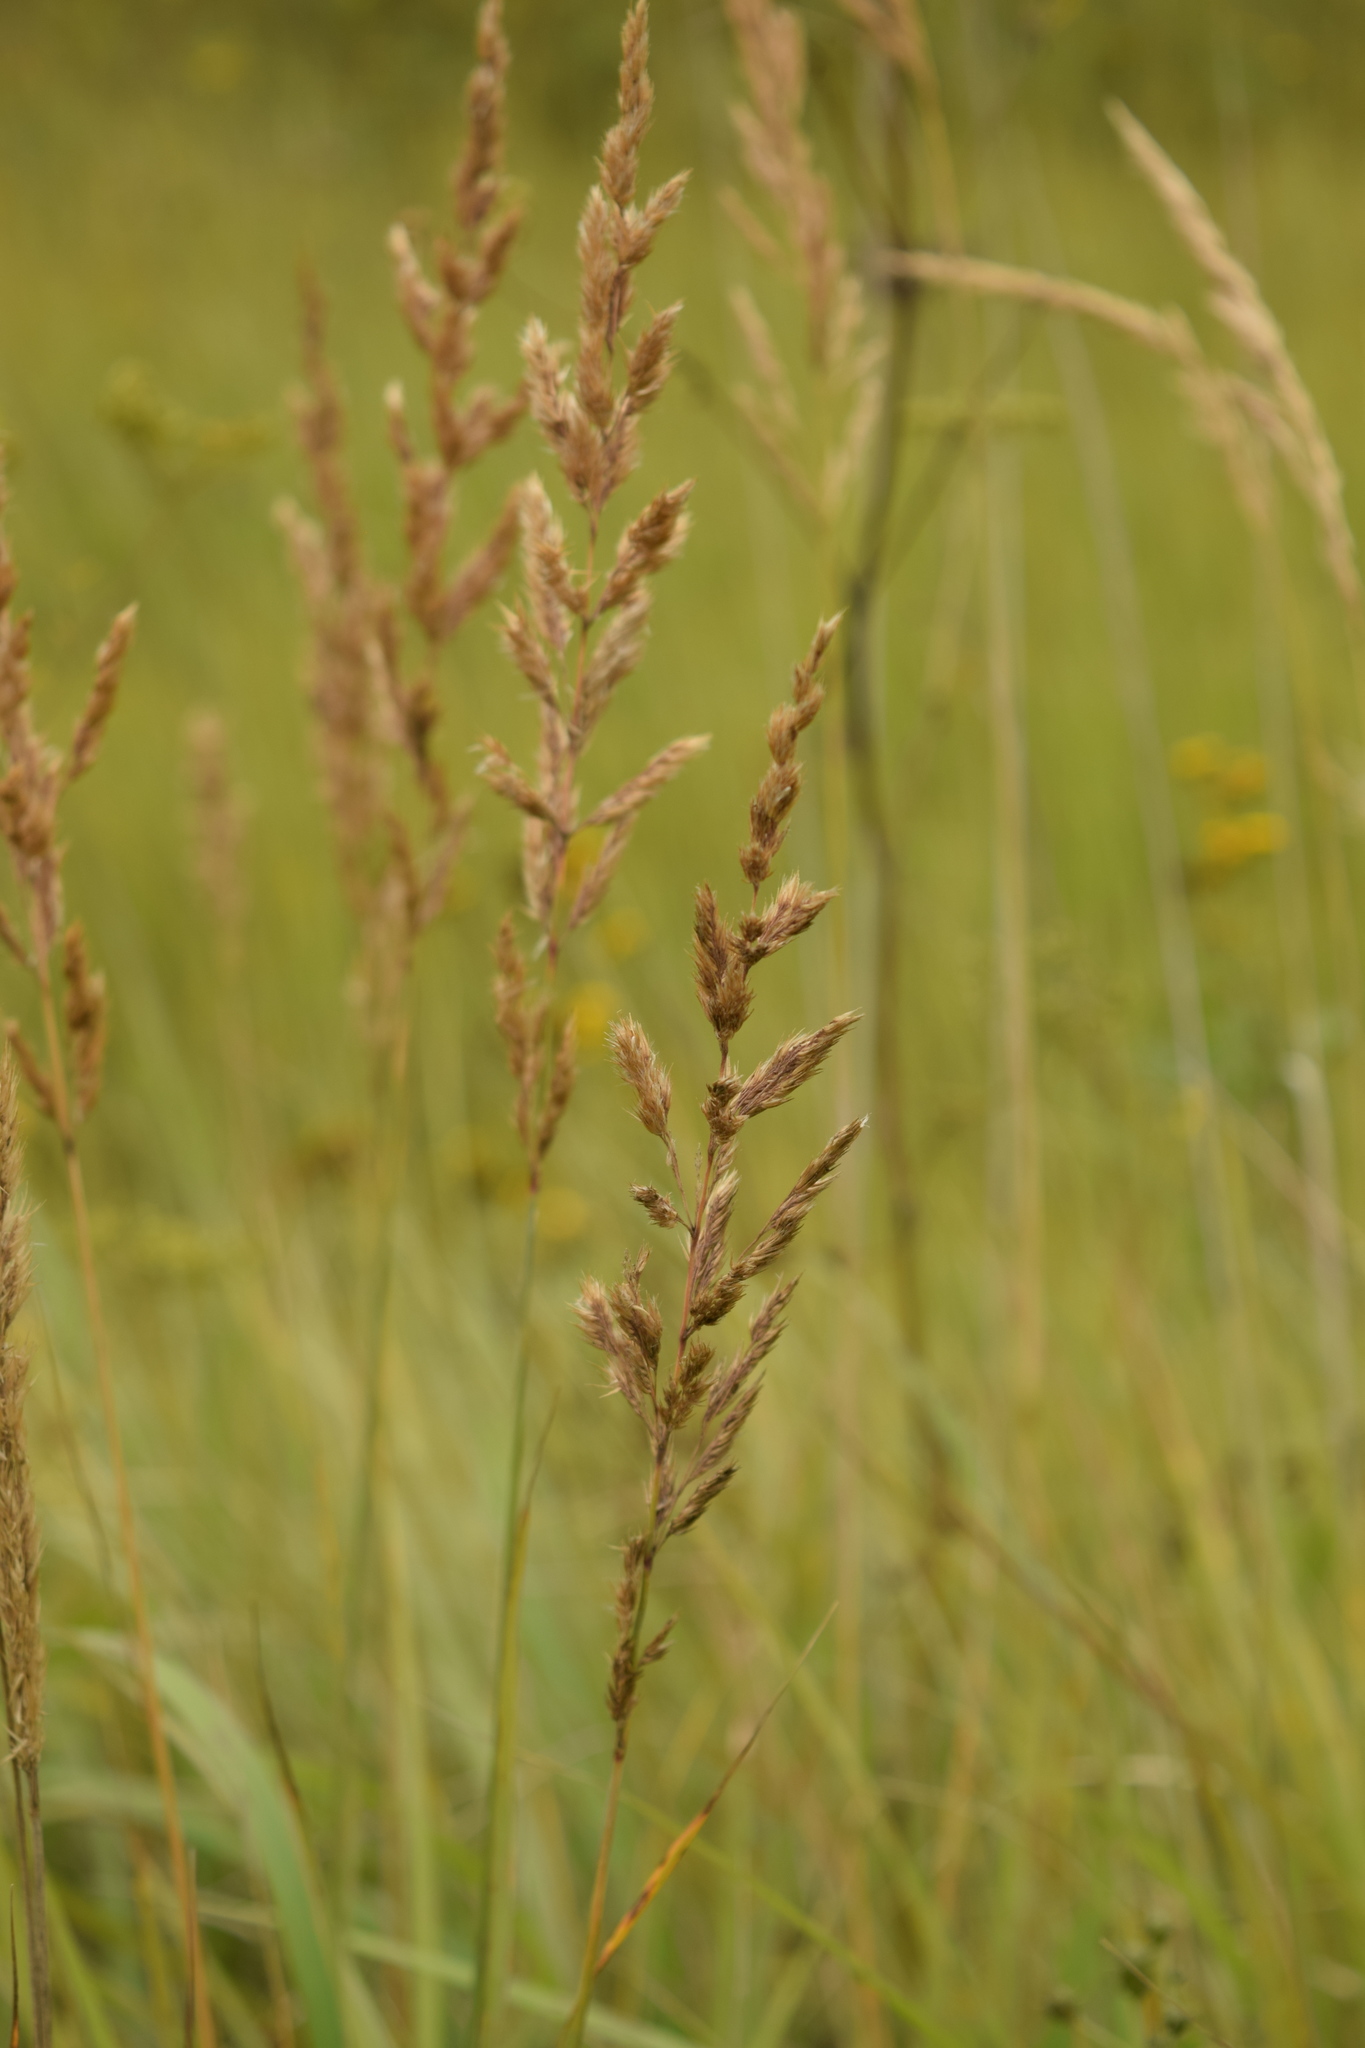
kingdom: Plantae
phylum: Tracheophyta
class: Liliopsida
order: Poales
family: Poaceae
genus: Calamagrostis
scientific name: Calamagrostis epigejos
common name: Wood small-reed
